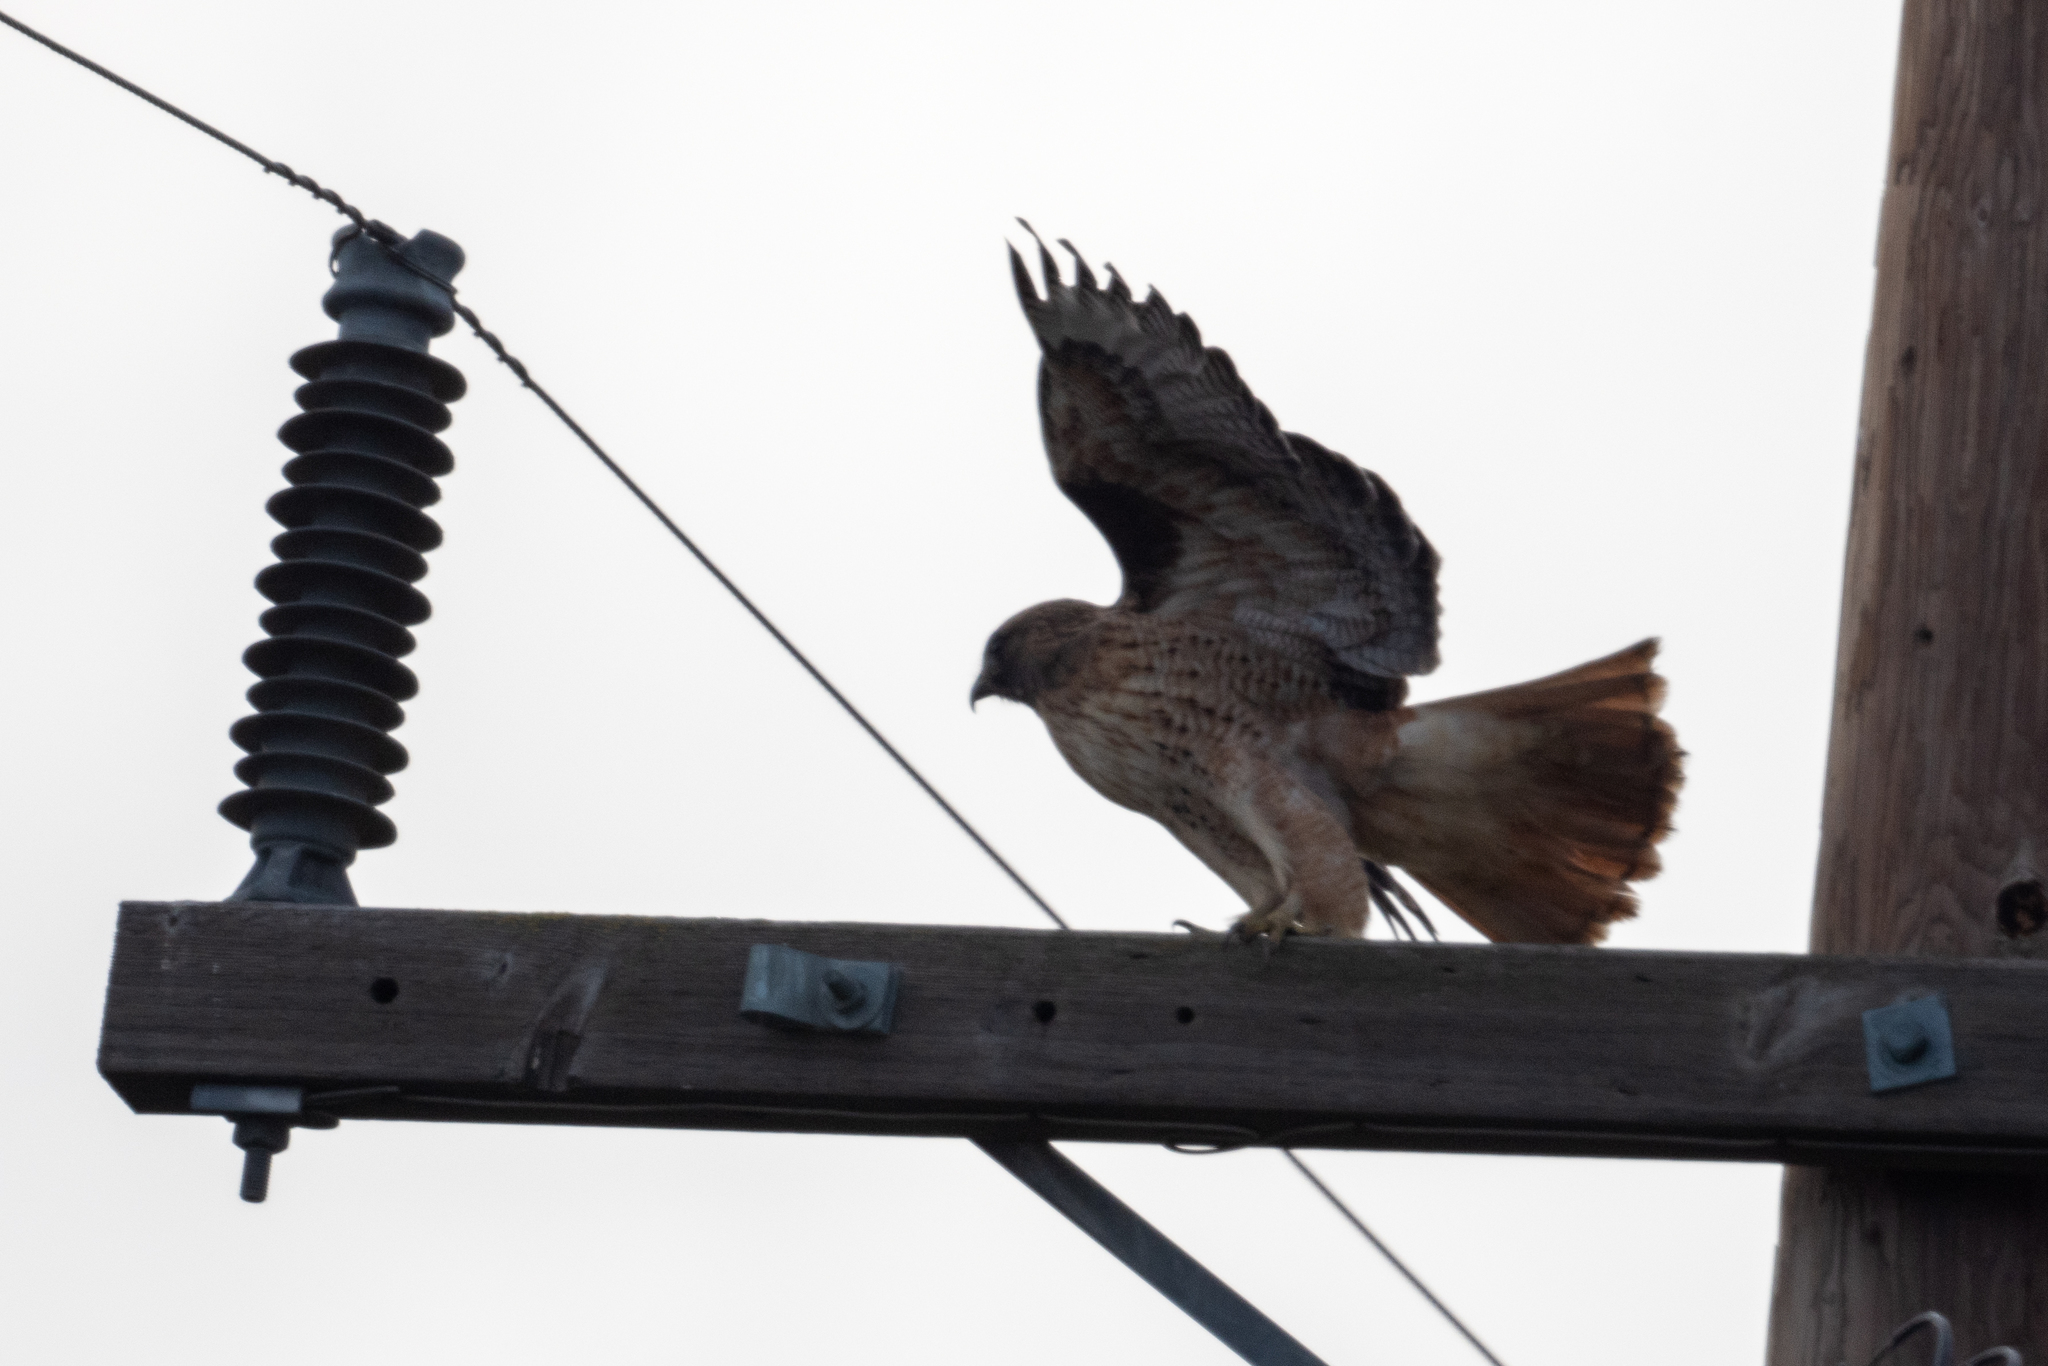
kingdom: Animalia
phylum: Chordata
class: Aves
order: Accipitriformes
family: Accipitridae
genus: Buteo
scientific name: Buteo jamaicensis
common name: Red-tailed hawk
